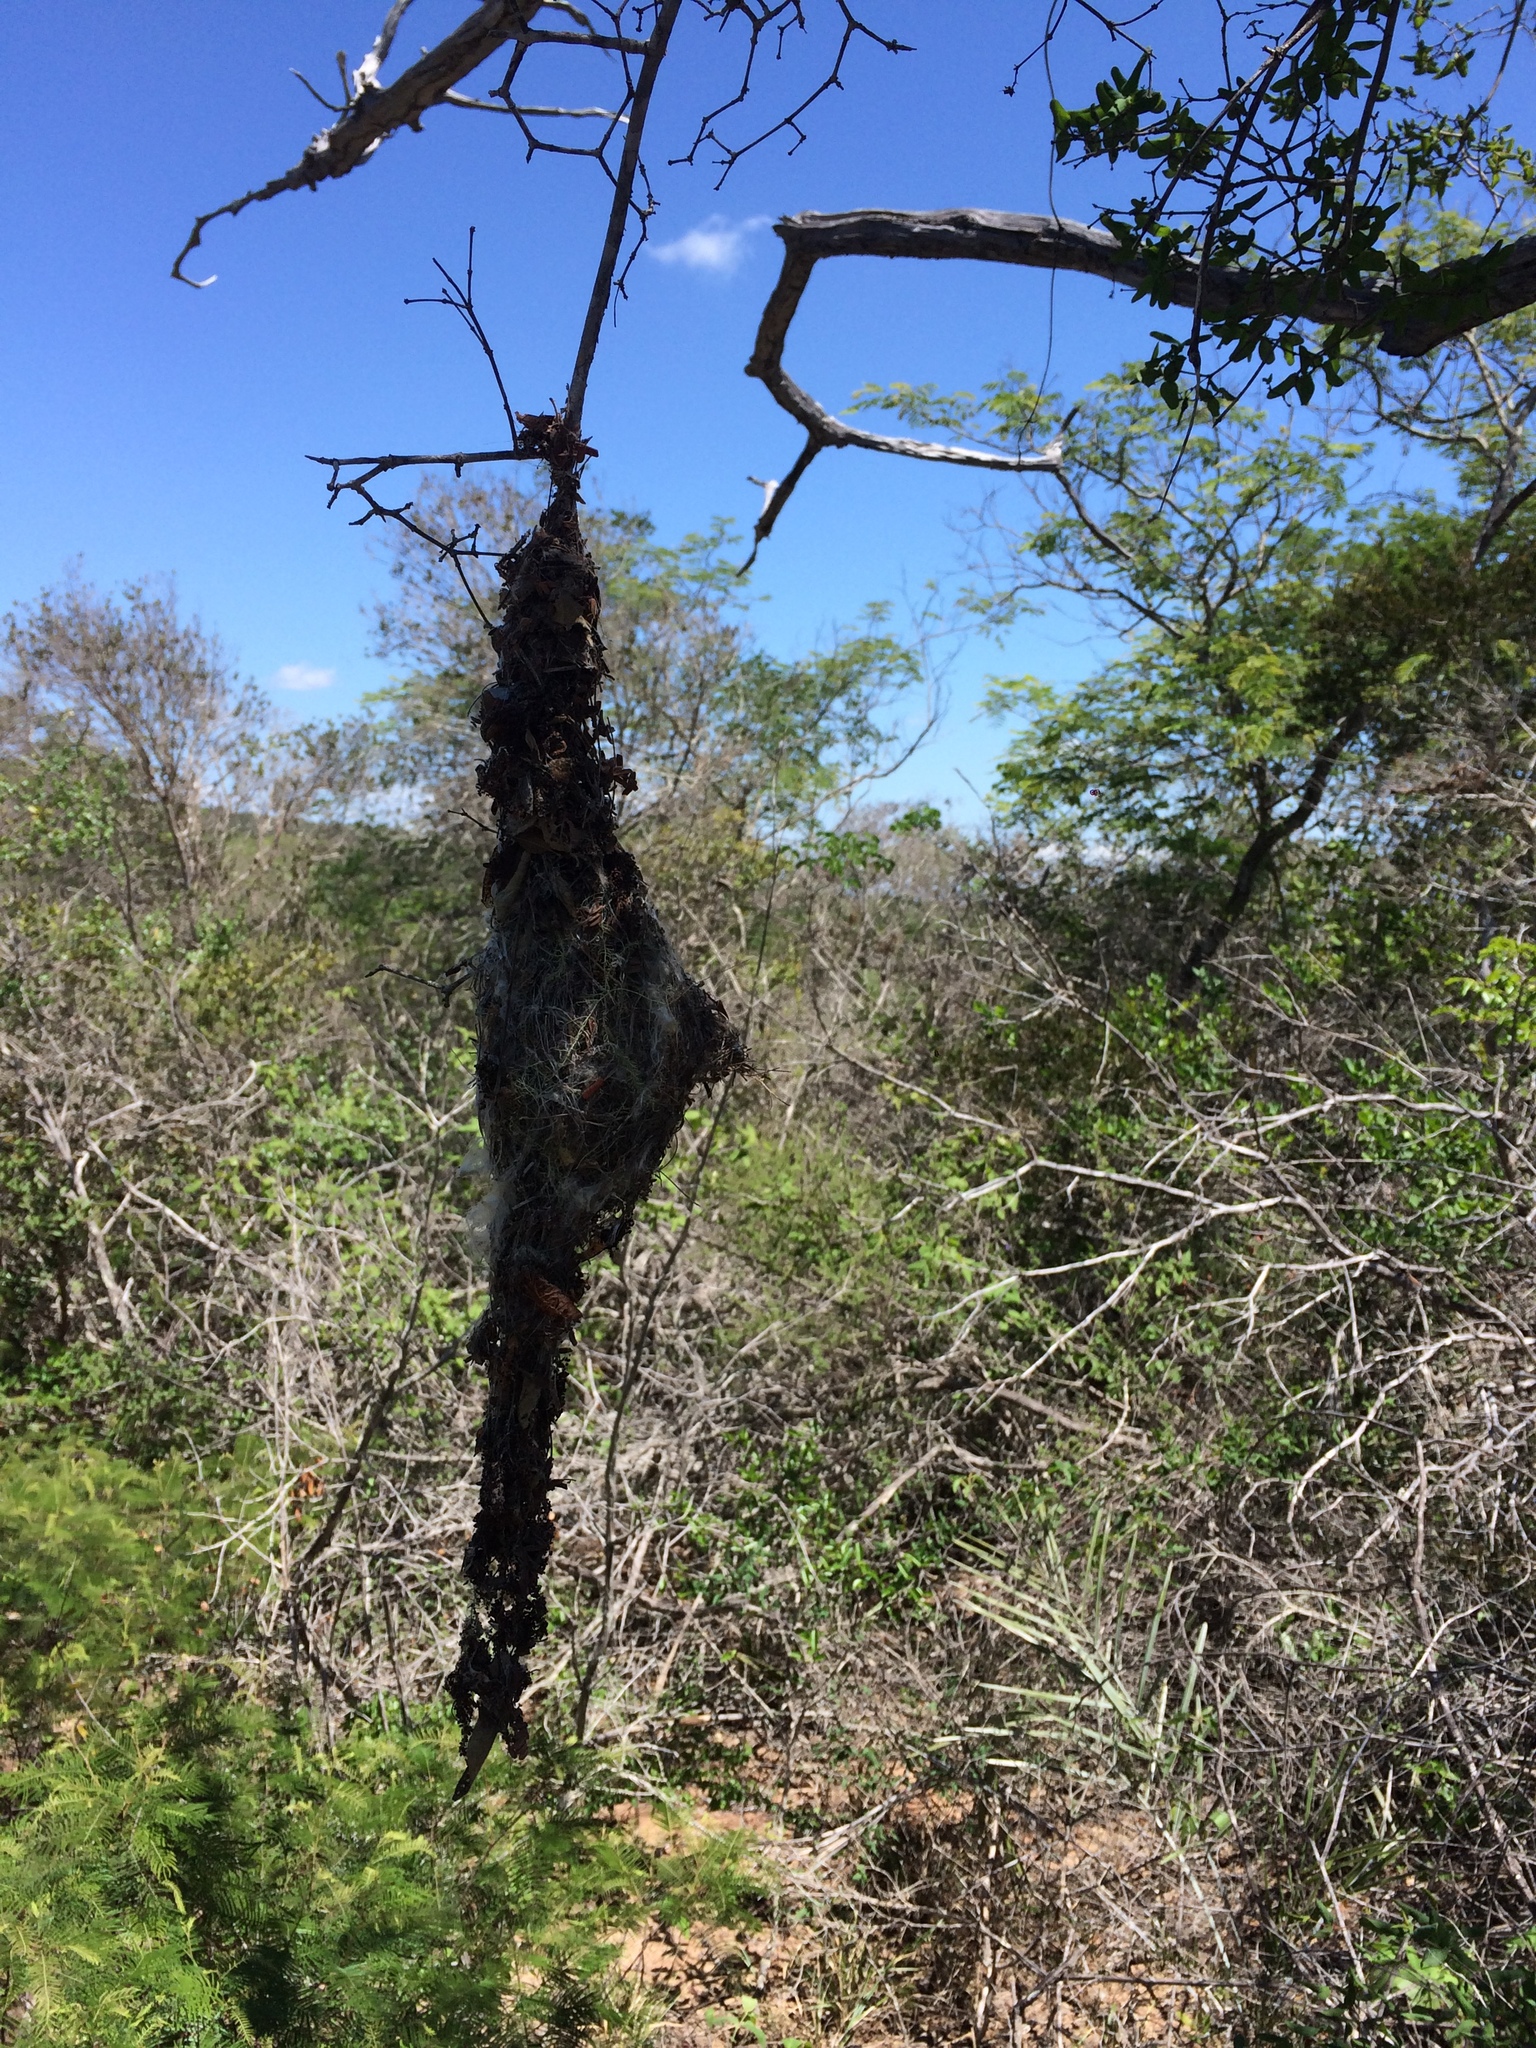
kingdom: Animalia
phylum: Chordata
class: Aves
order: Passeriformes
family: Tyrannidae
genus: Todirostrum
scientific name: Todirostrum cinereum
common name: Common tody-flycatcher
